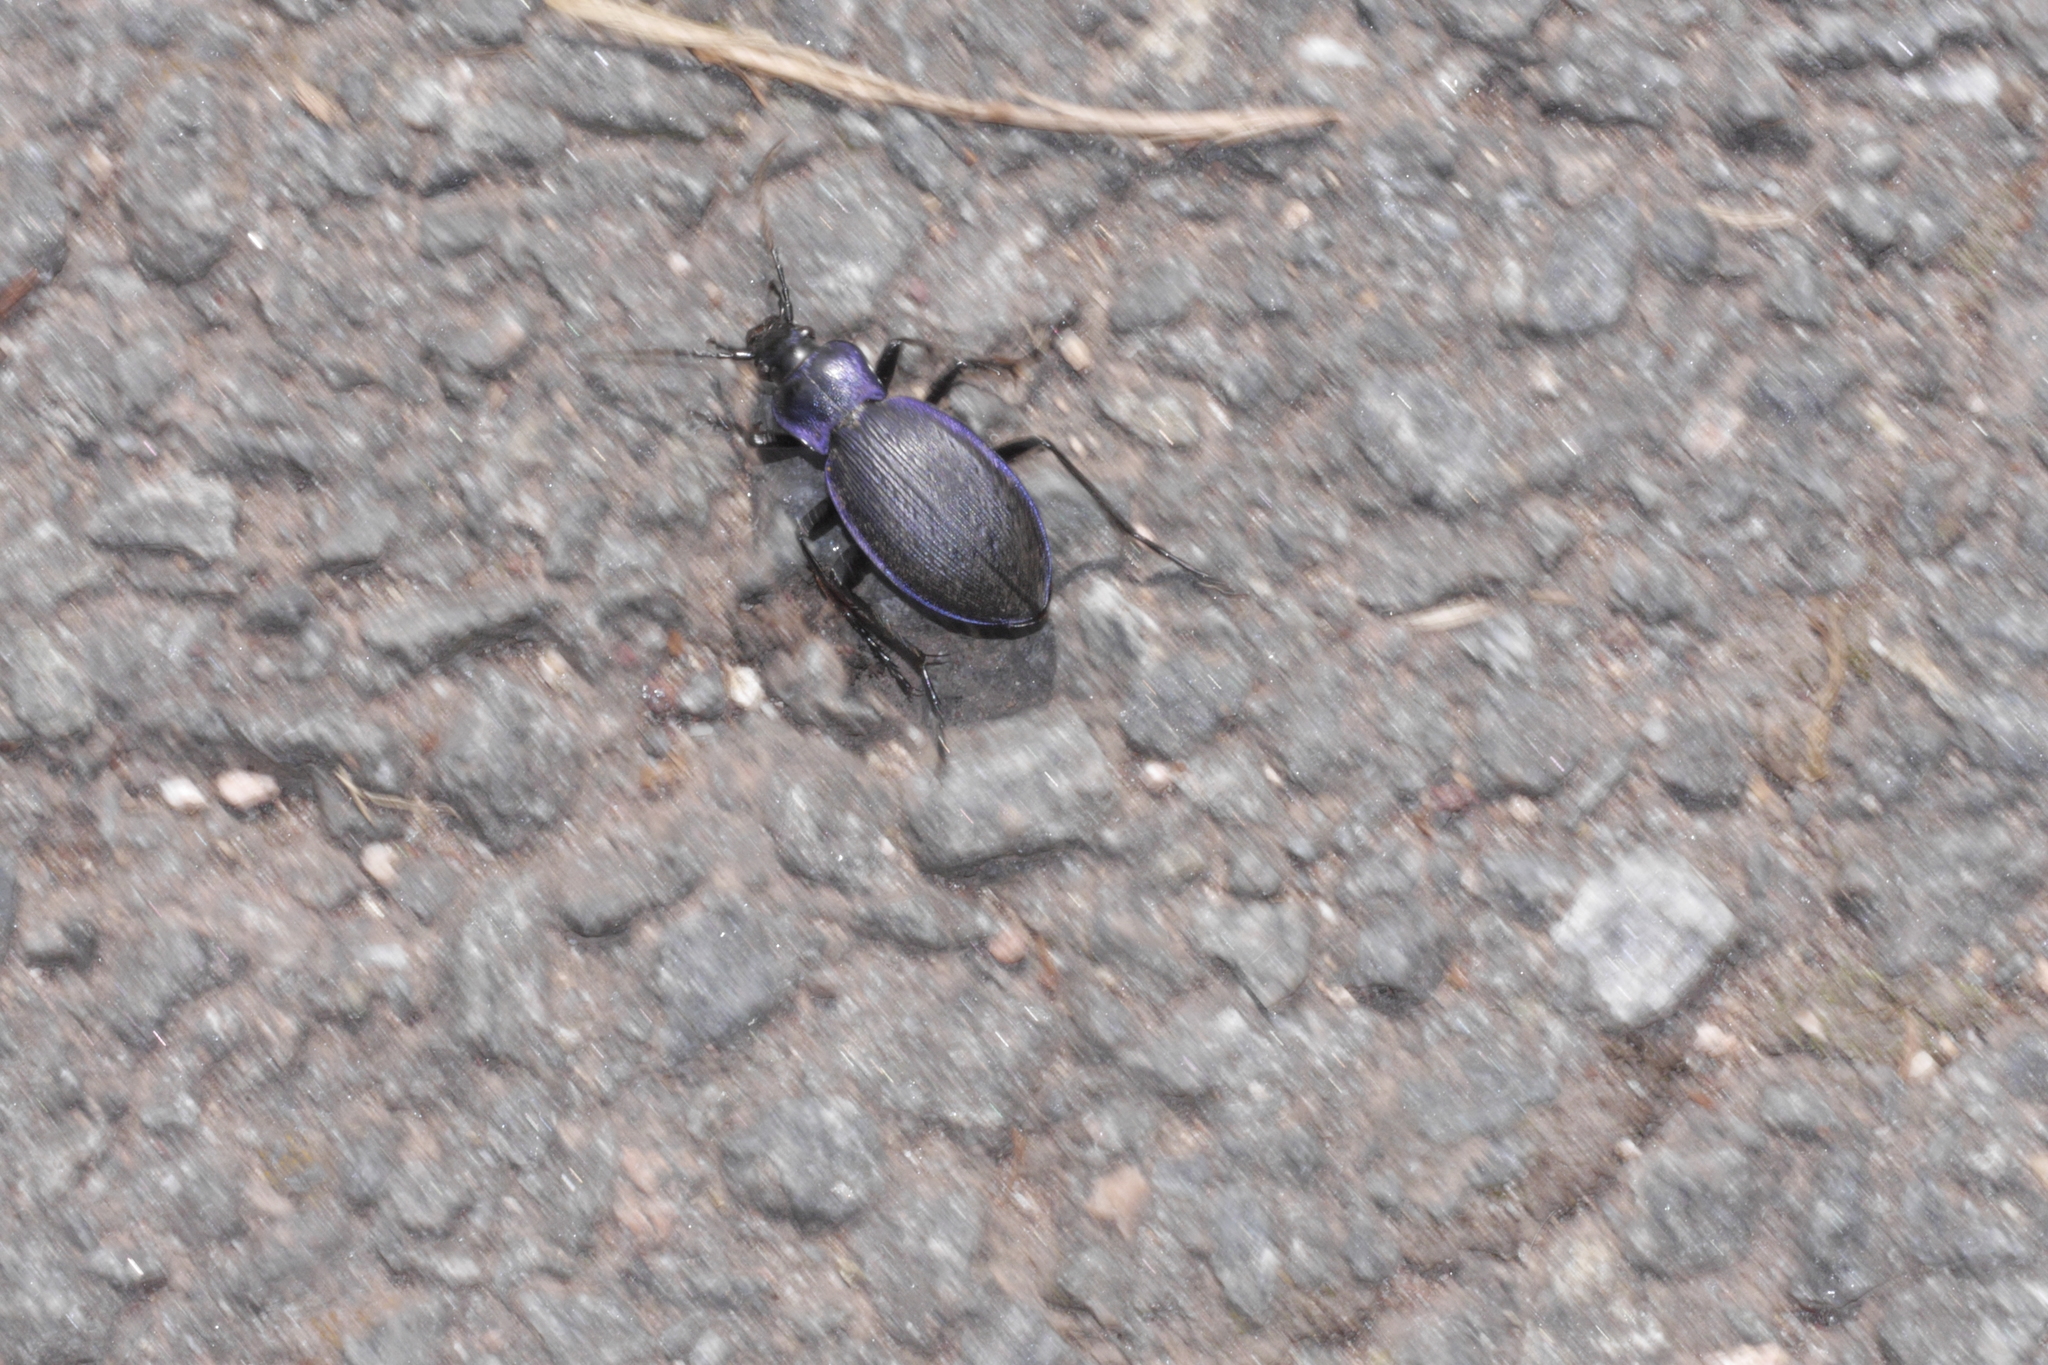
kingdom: Animalia
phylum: Arthropoda
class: Insecta
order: Coleoptera
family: Carabidae
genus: Carabus
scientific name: Carabus problematicus
